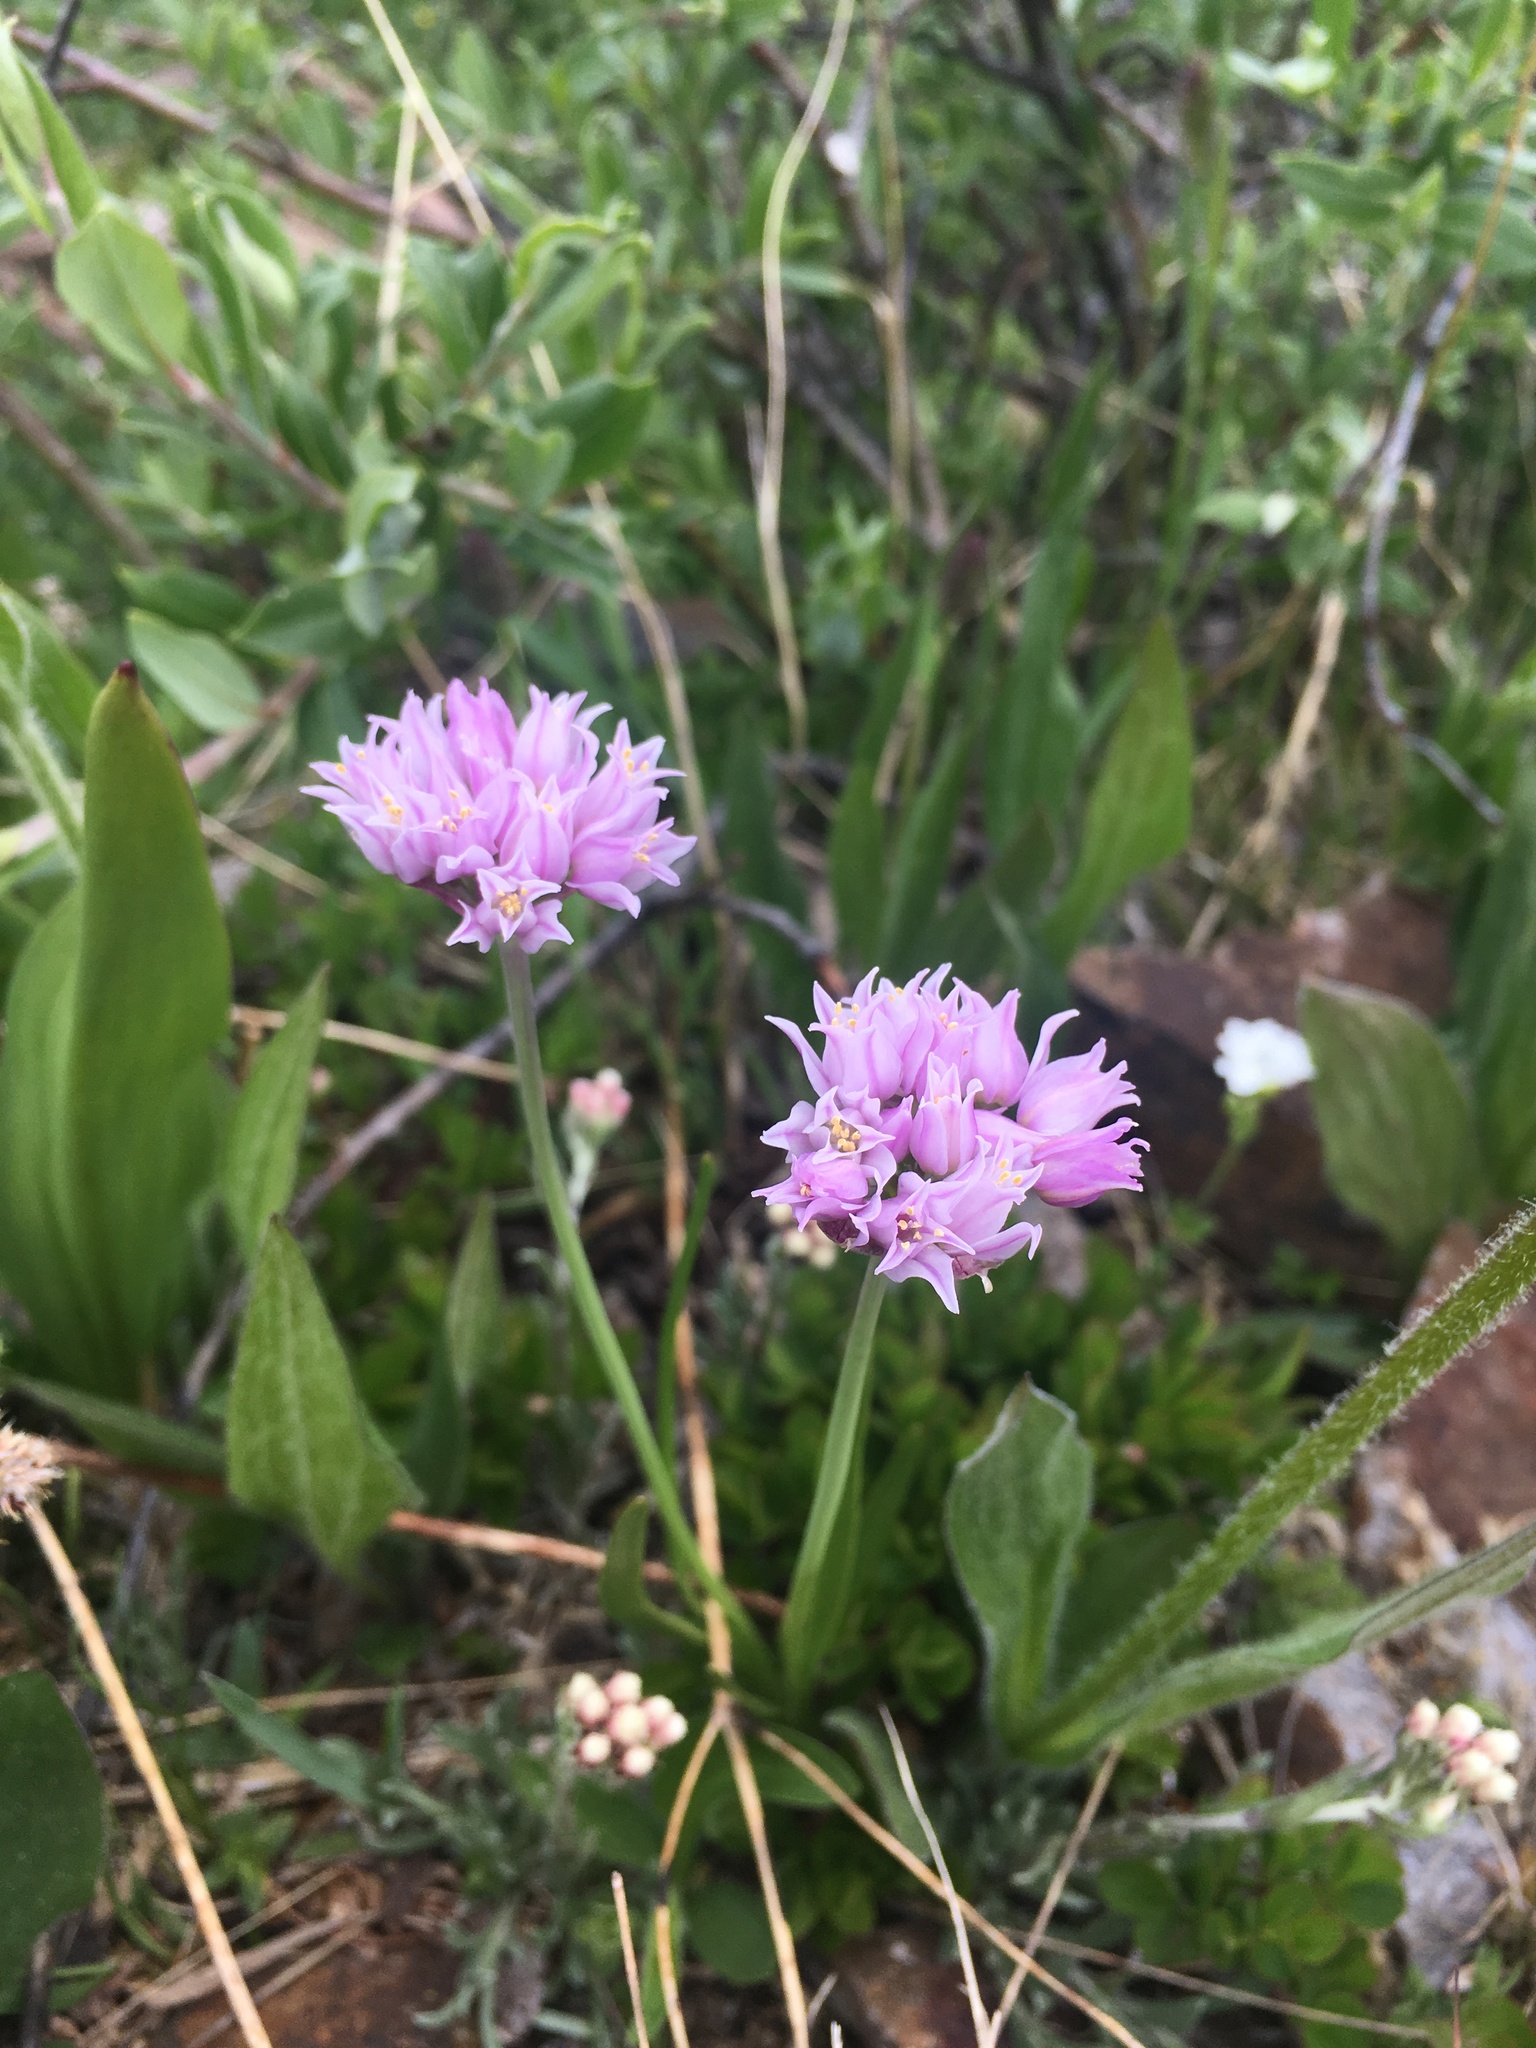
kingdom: Plantae
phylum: Tracheophyta
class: Liliopsida
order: Asparagales
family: Amaryllidaceae
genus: Allium
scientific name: Allium geyeri
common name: Geyer's onion
